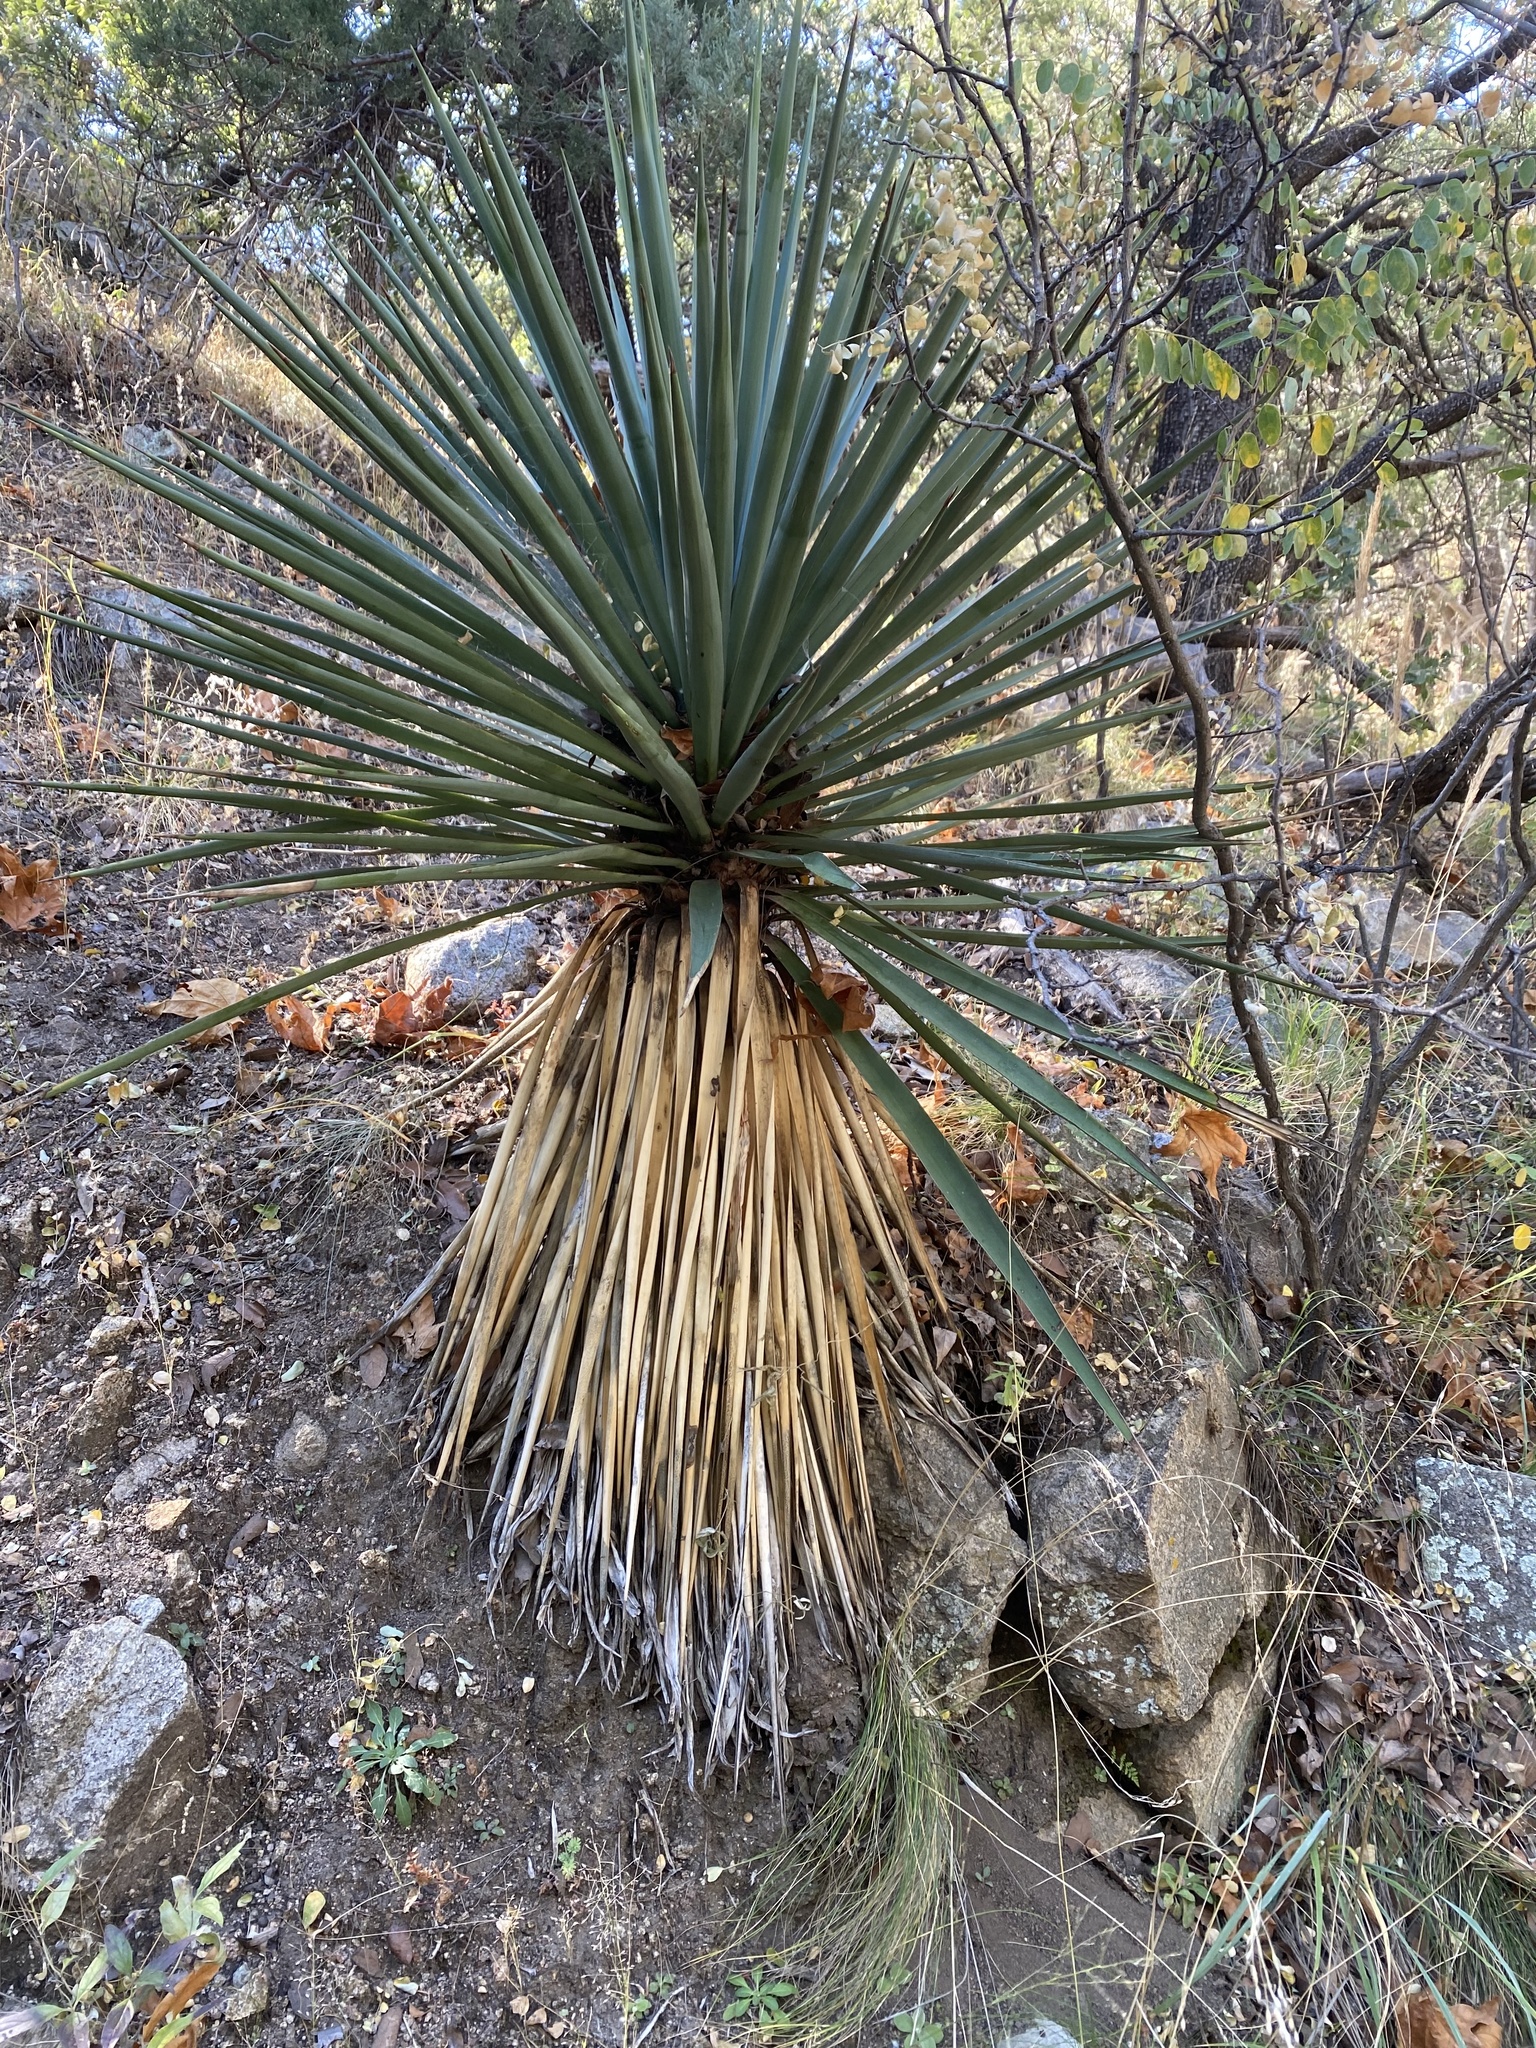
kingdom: Plantae
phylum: Tracheophyta
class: Liliopsida
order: Asparagales
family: Asparagaceae
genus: Yucca
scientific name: Yucca madrensis
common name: Hoary yucca
